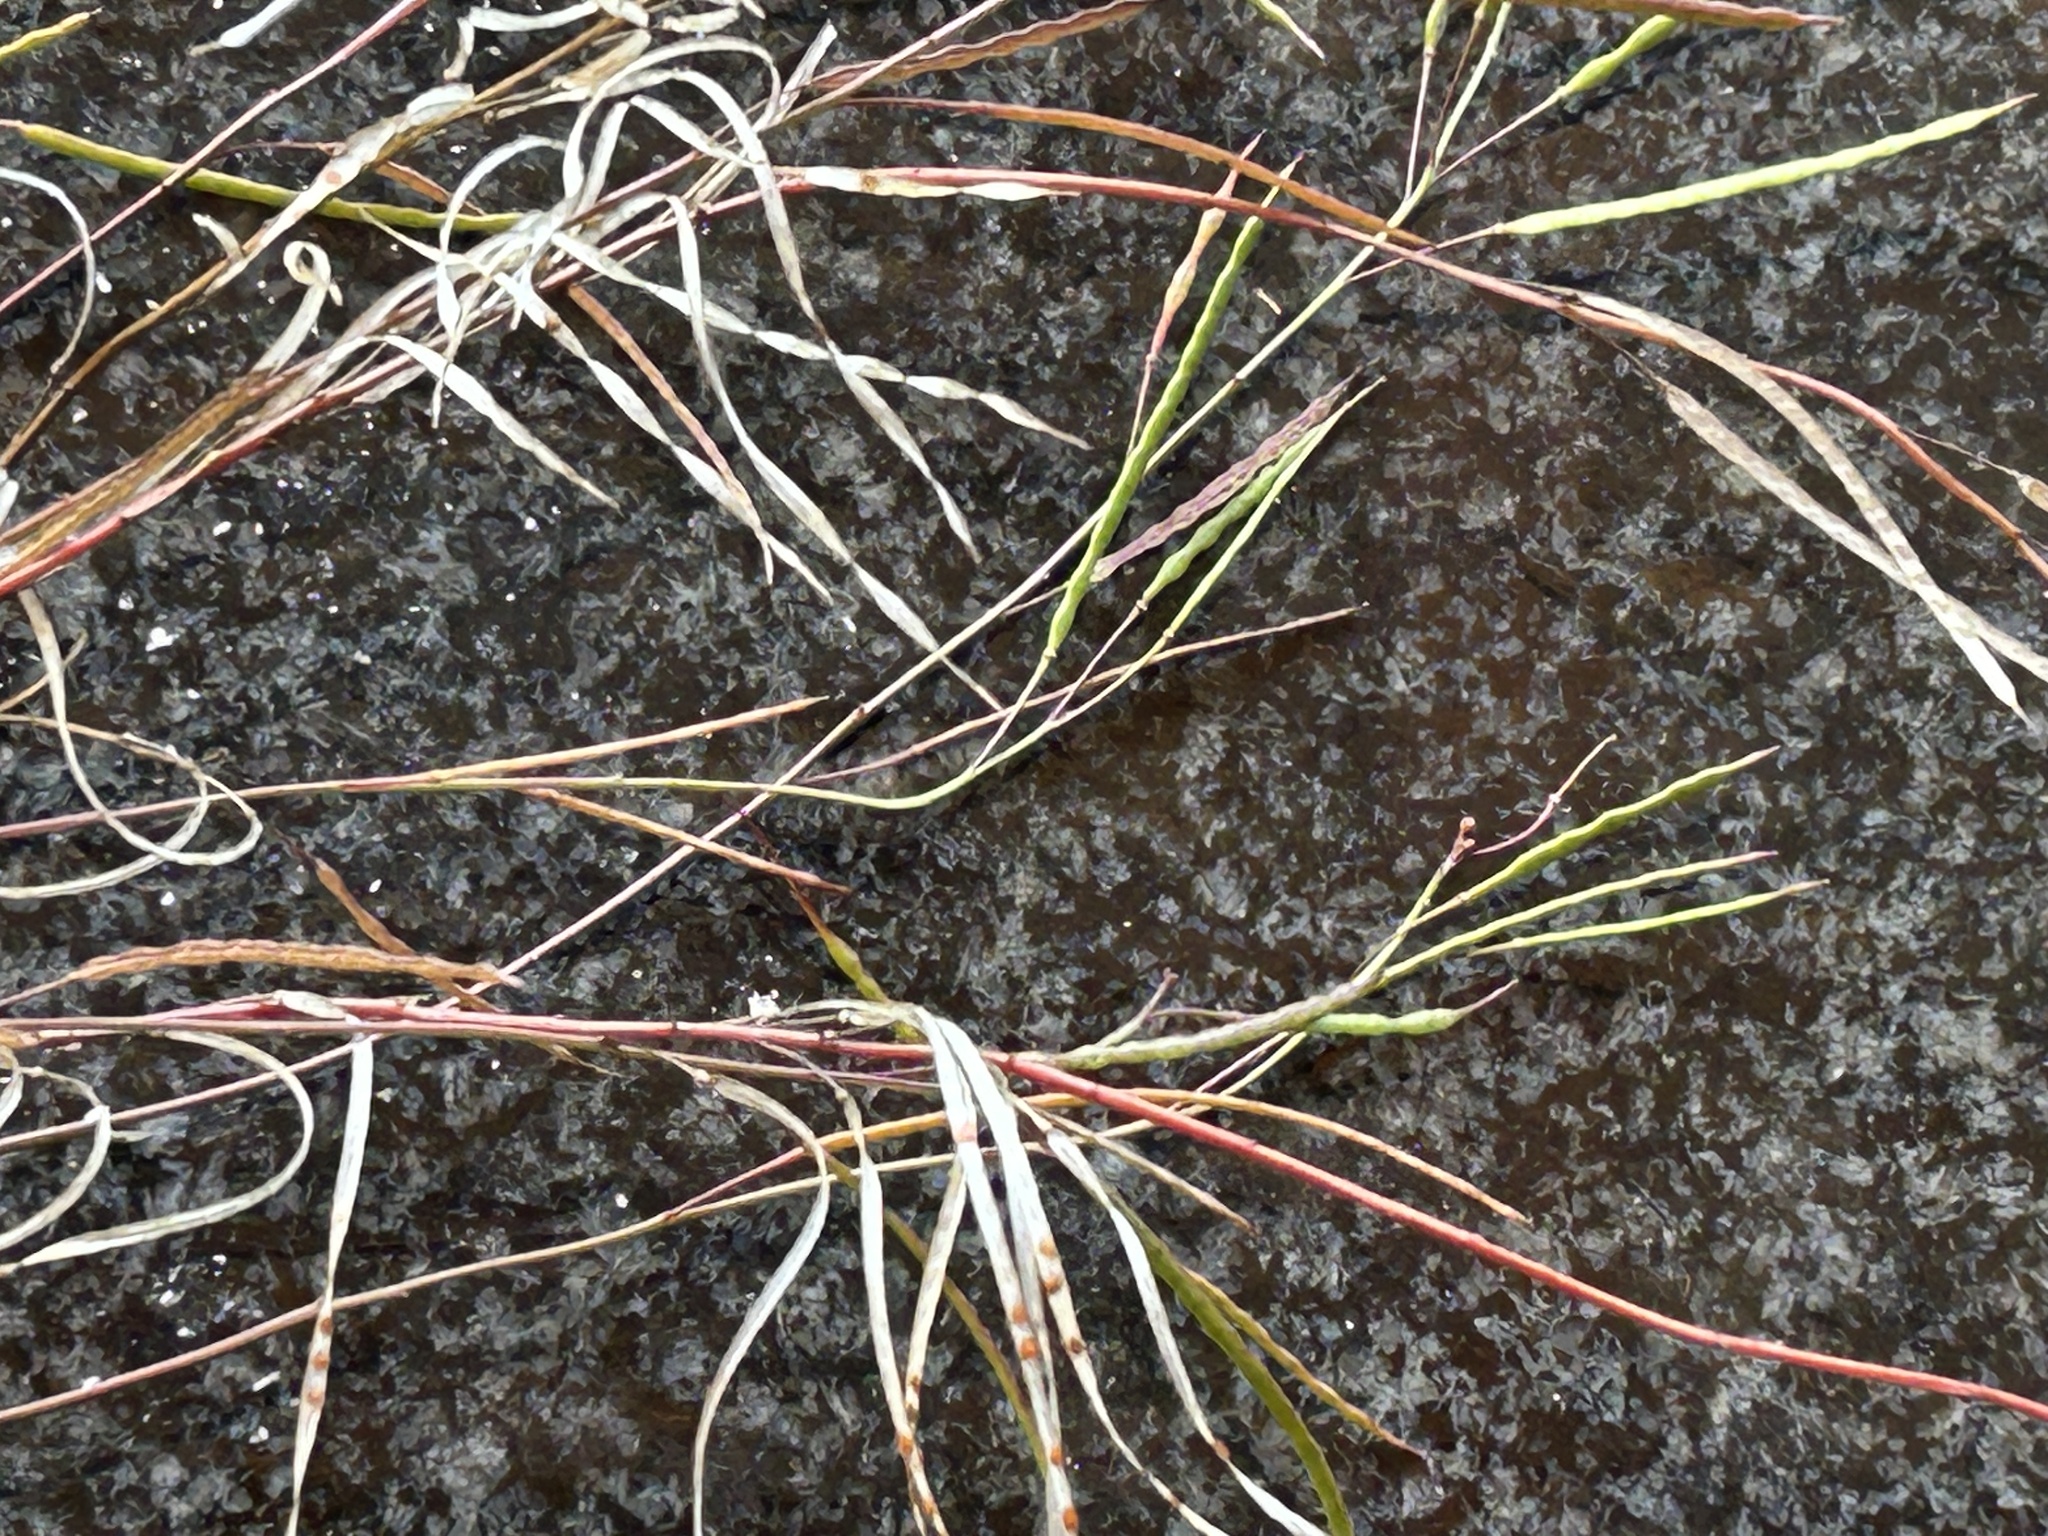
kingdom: Plantae
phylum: Tracheophyta
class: Magnoliopsida
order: Brassicales
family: Brassicaceae
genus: Heliophila
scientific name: Heliophila linearis
